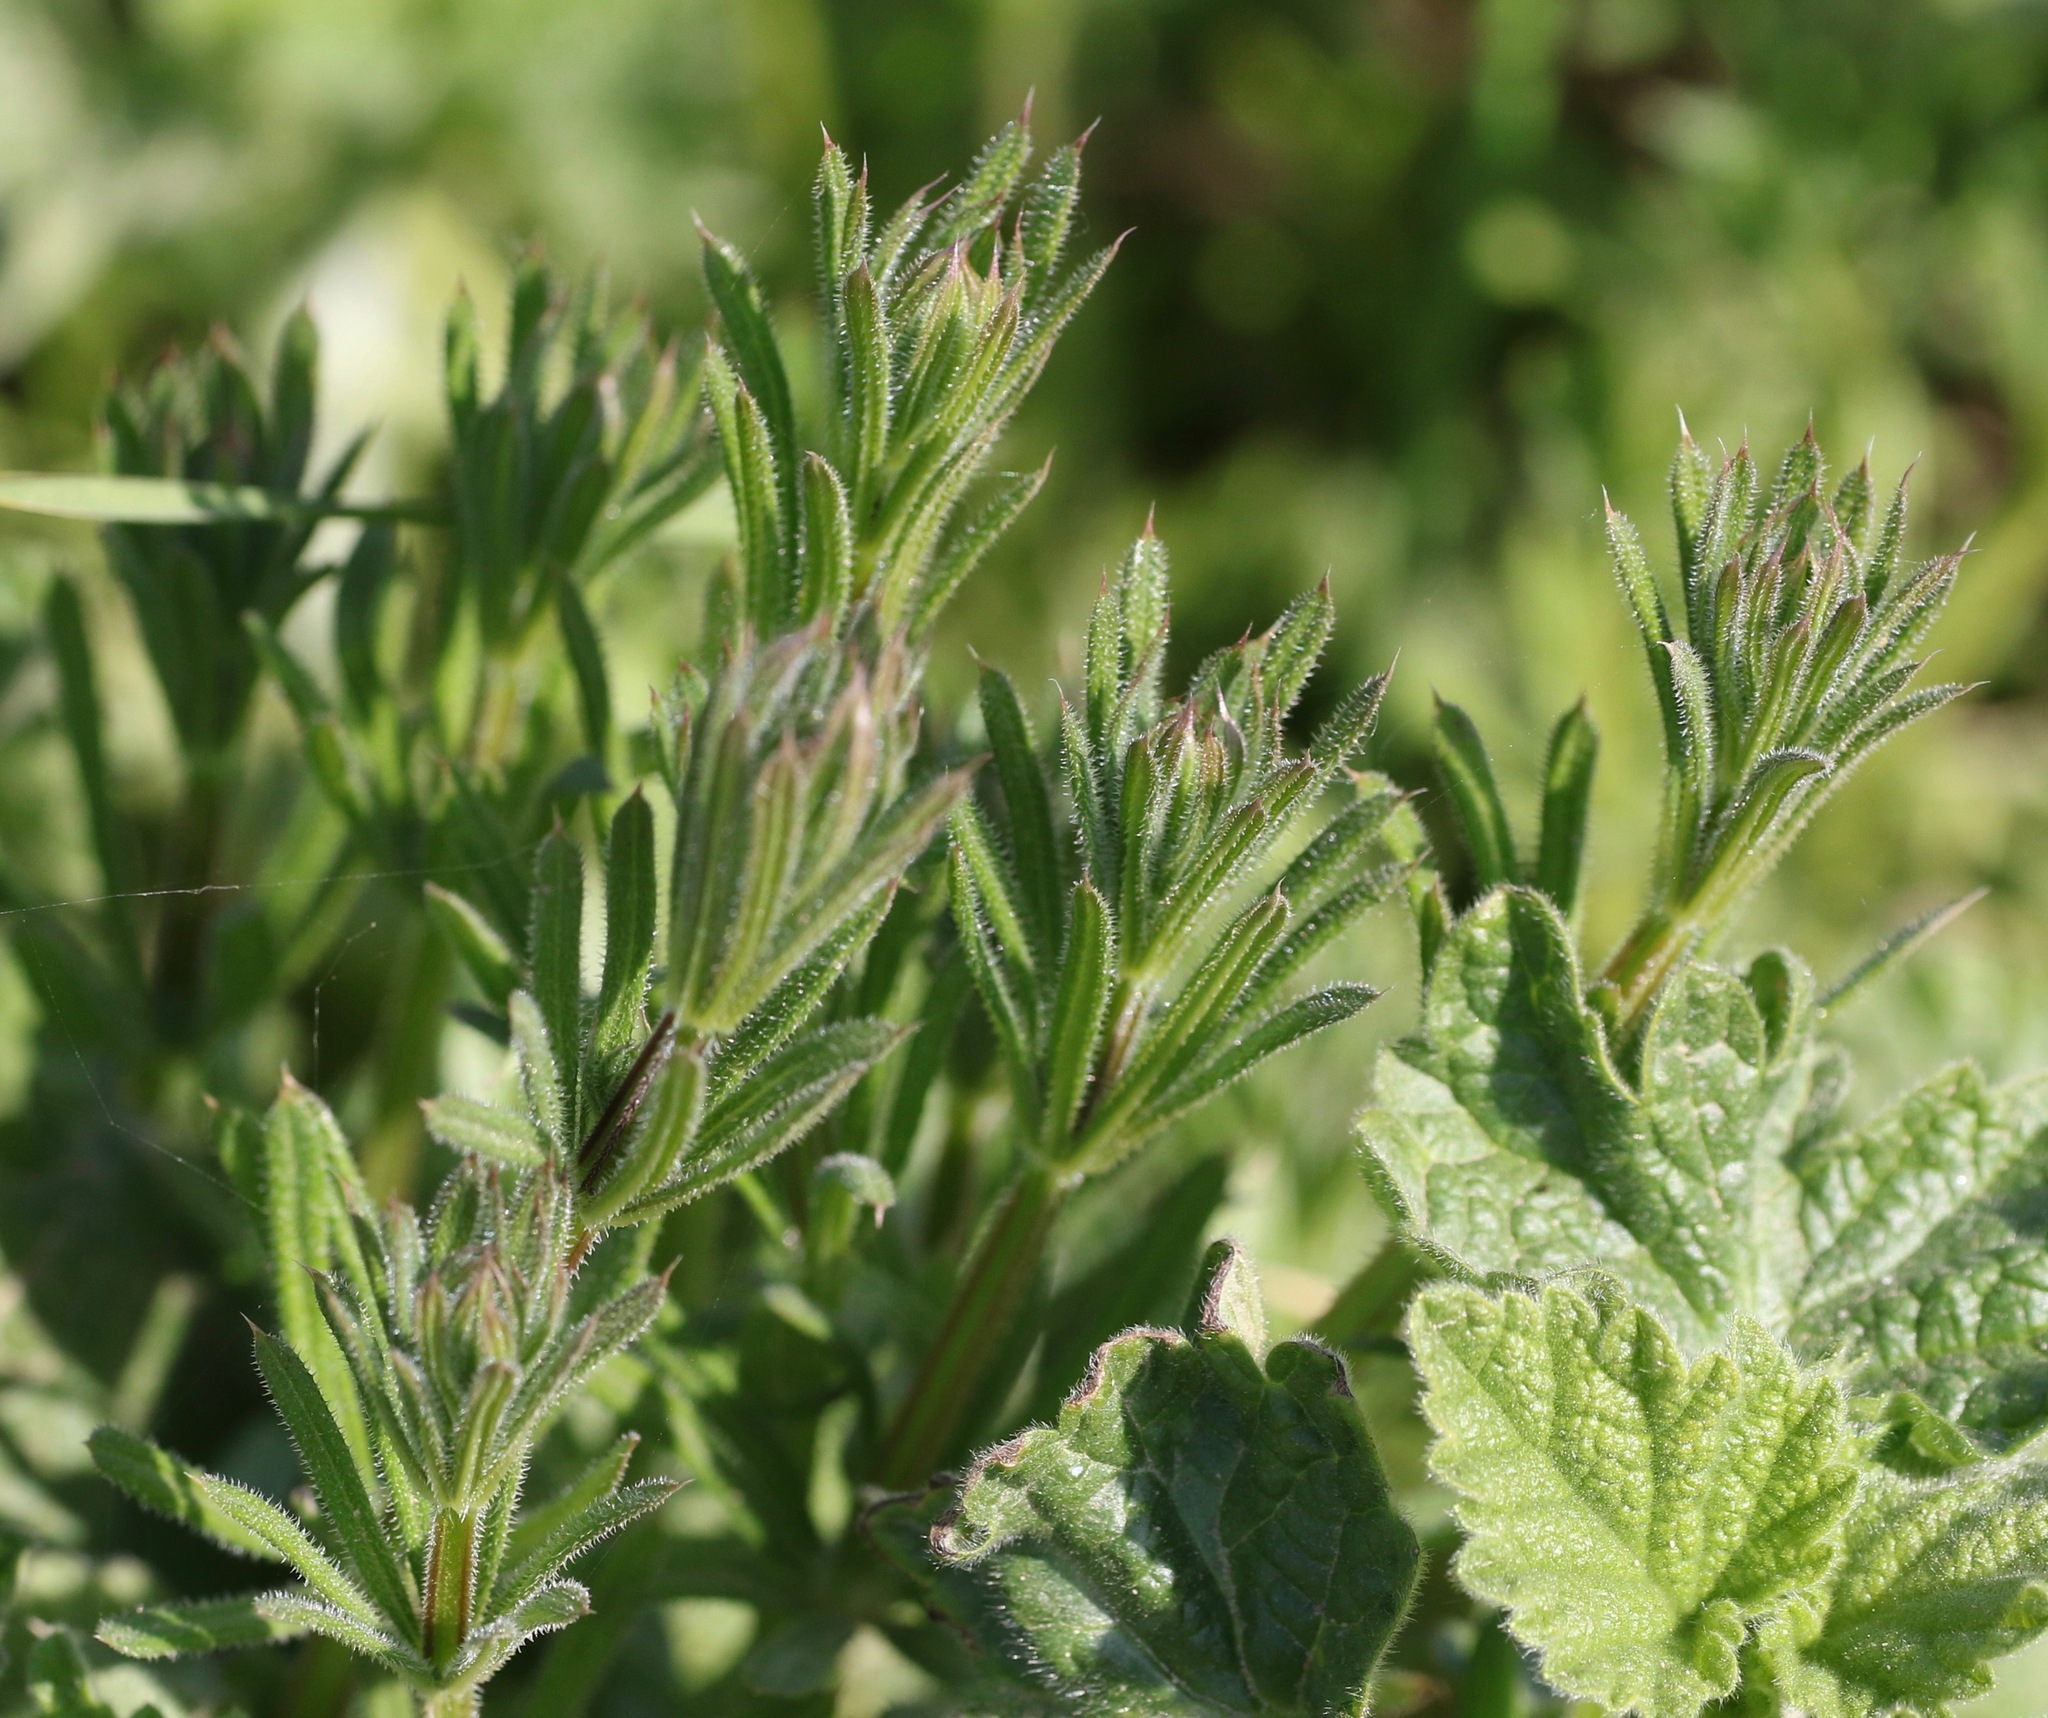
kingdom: Plantae
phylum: Tracheophyta
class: Magnoliopsida
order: Gentianales
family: Rubiaceae
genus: Galium
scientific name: Galium aparine
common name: Cleavers
